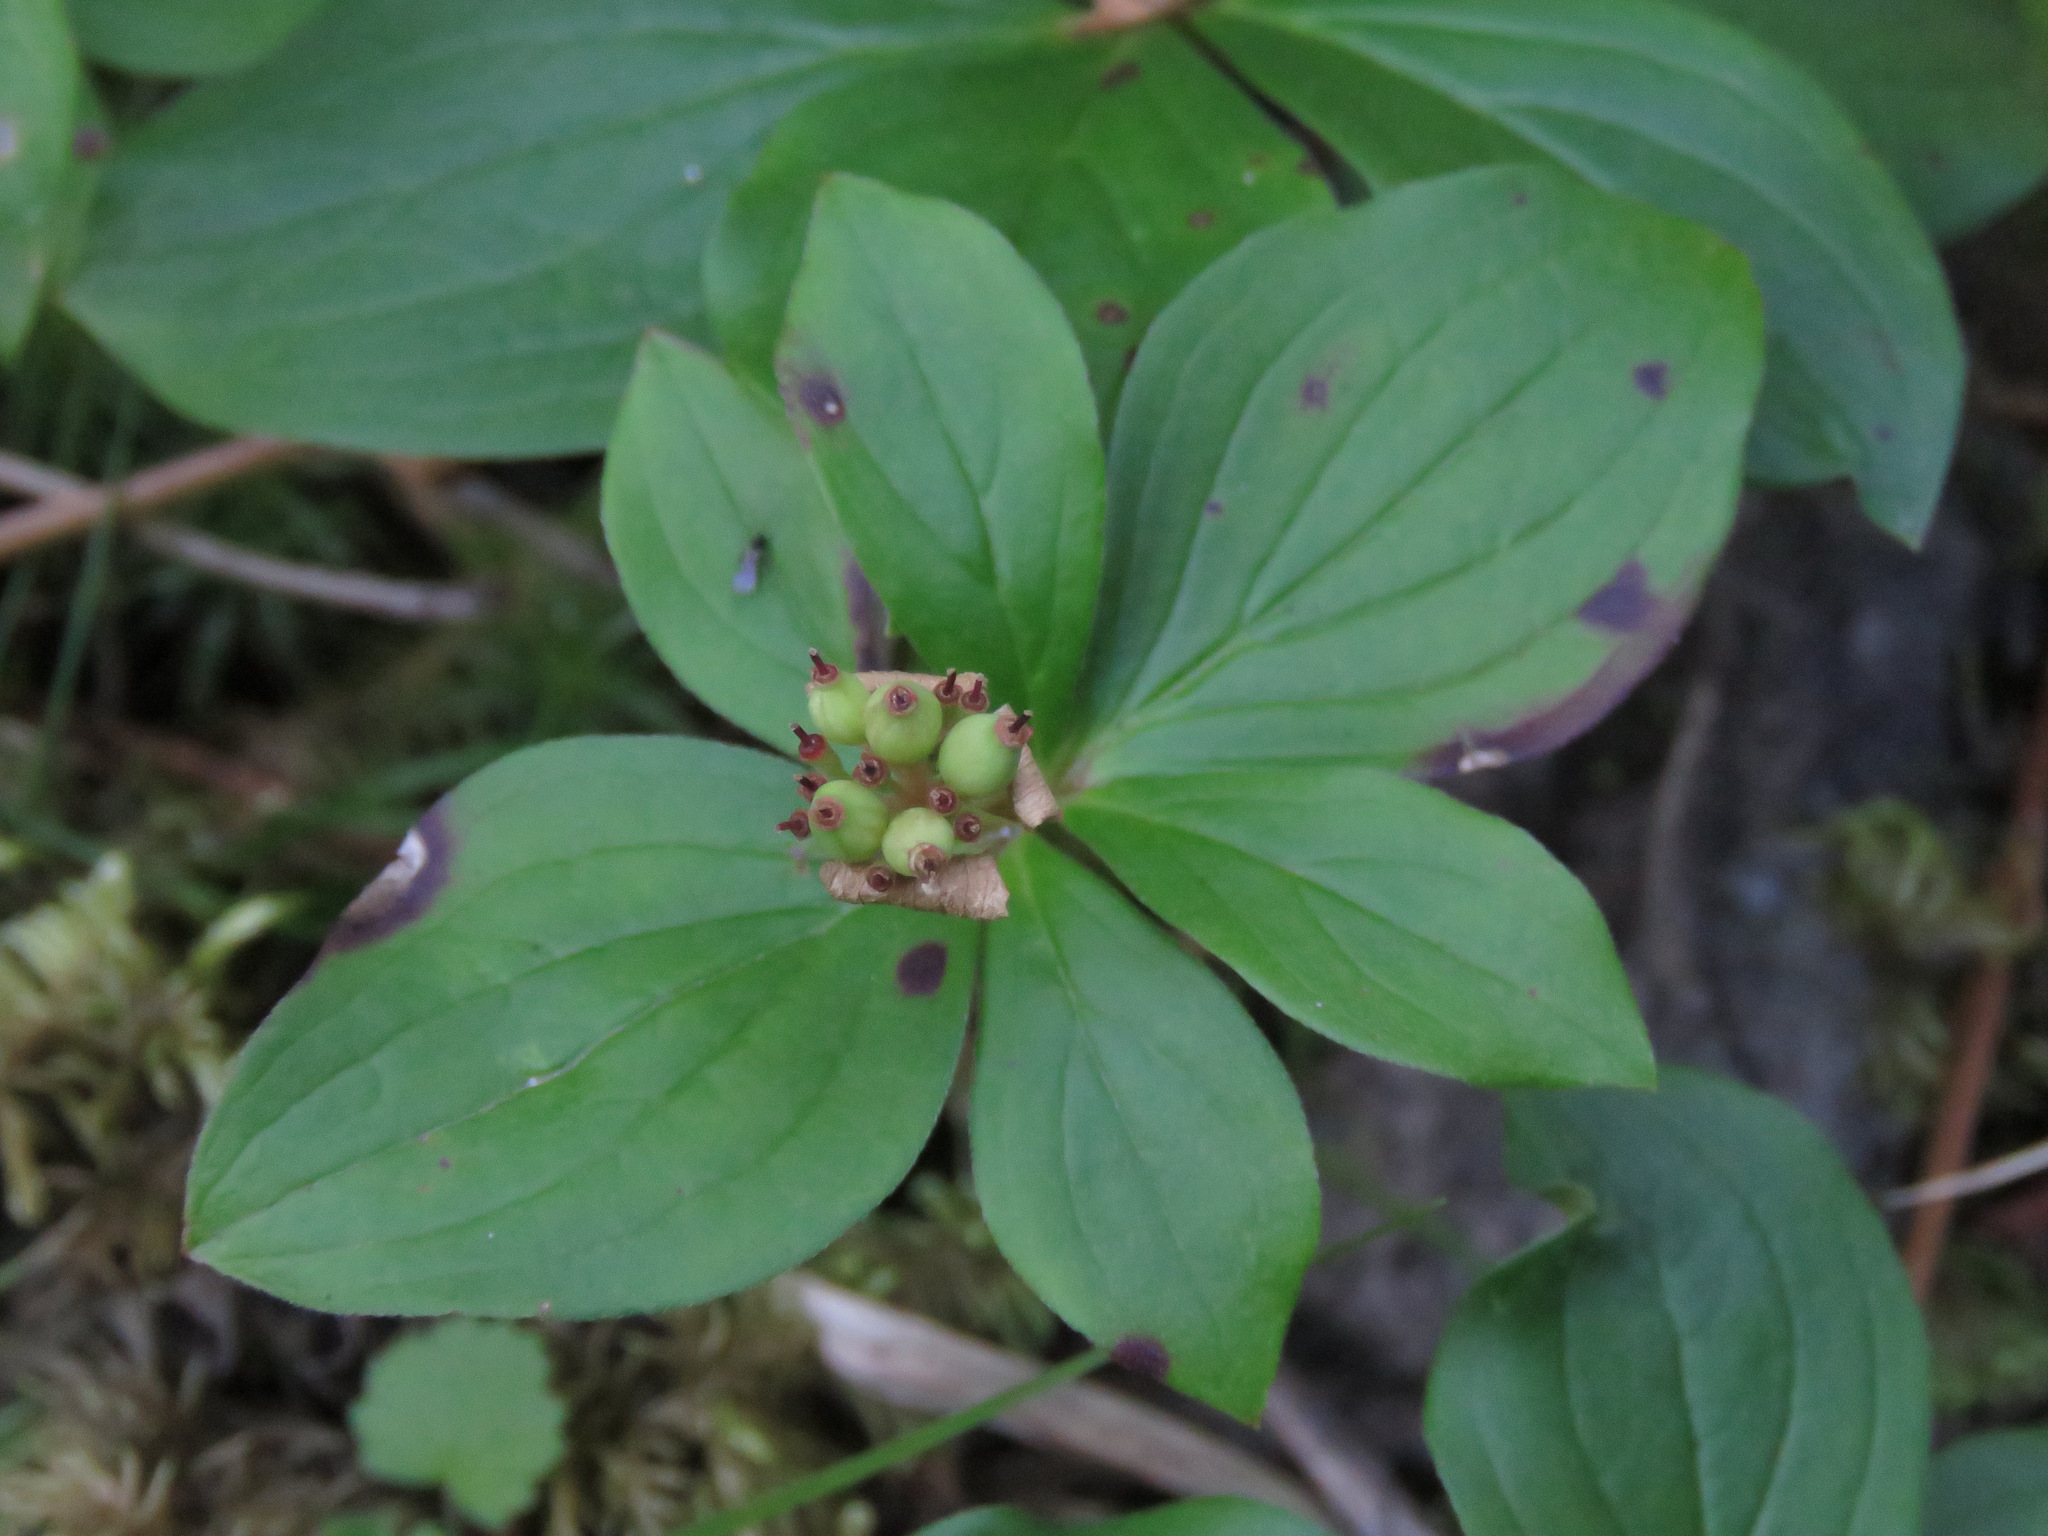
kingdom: Plantae
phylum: Tracheophyta
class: Magnoliopsida
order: Cornales
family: Cornaceae
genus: Cornus
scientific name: Cornus canadensis
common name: Creeping dogwood
